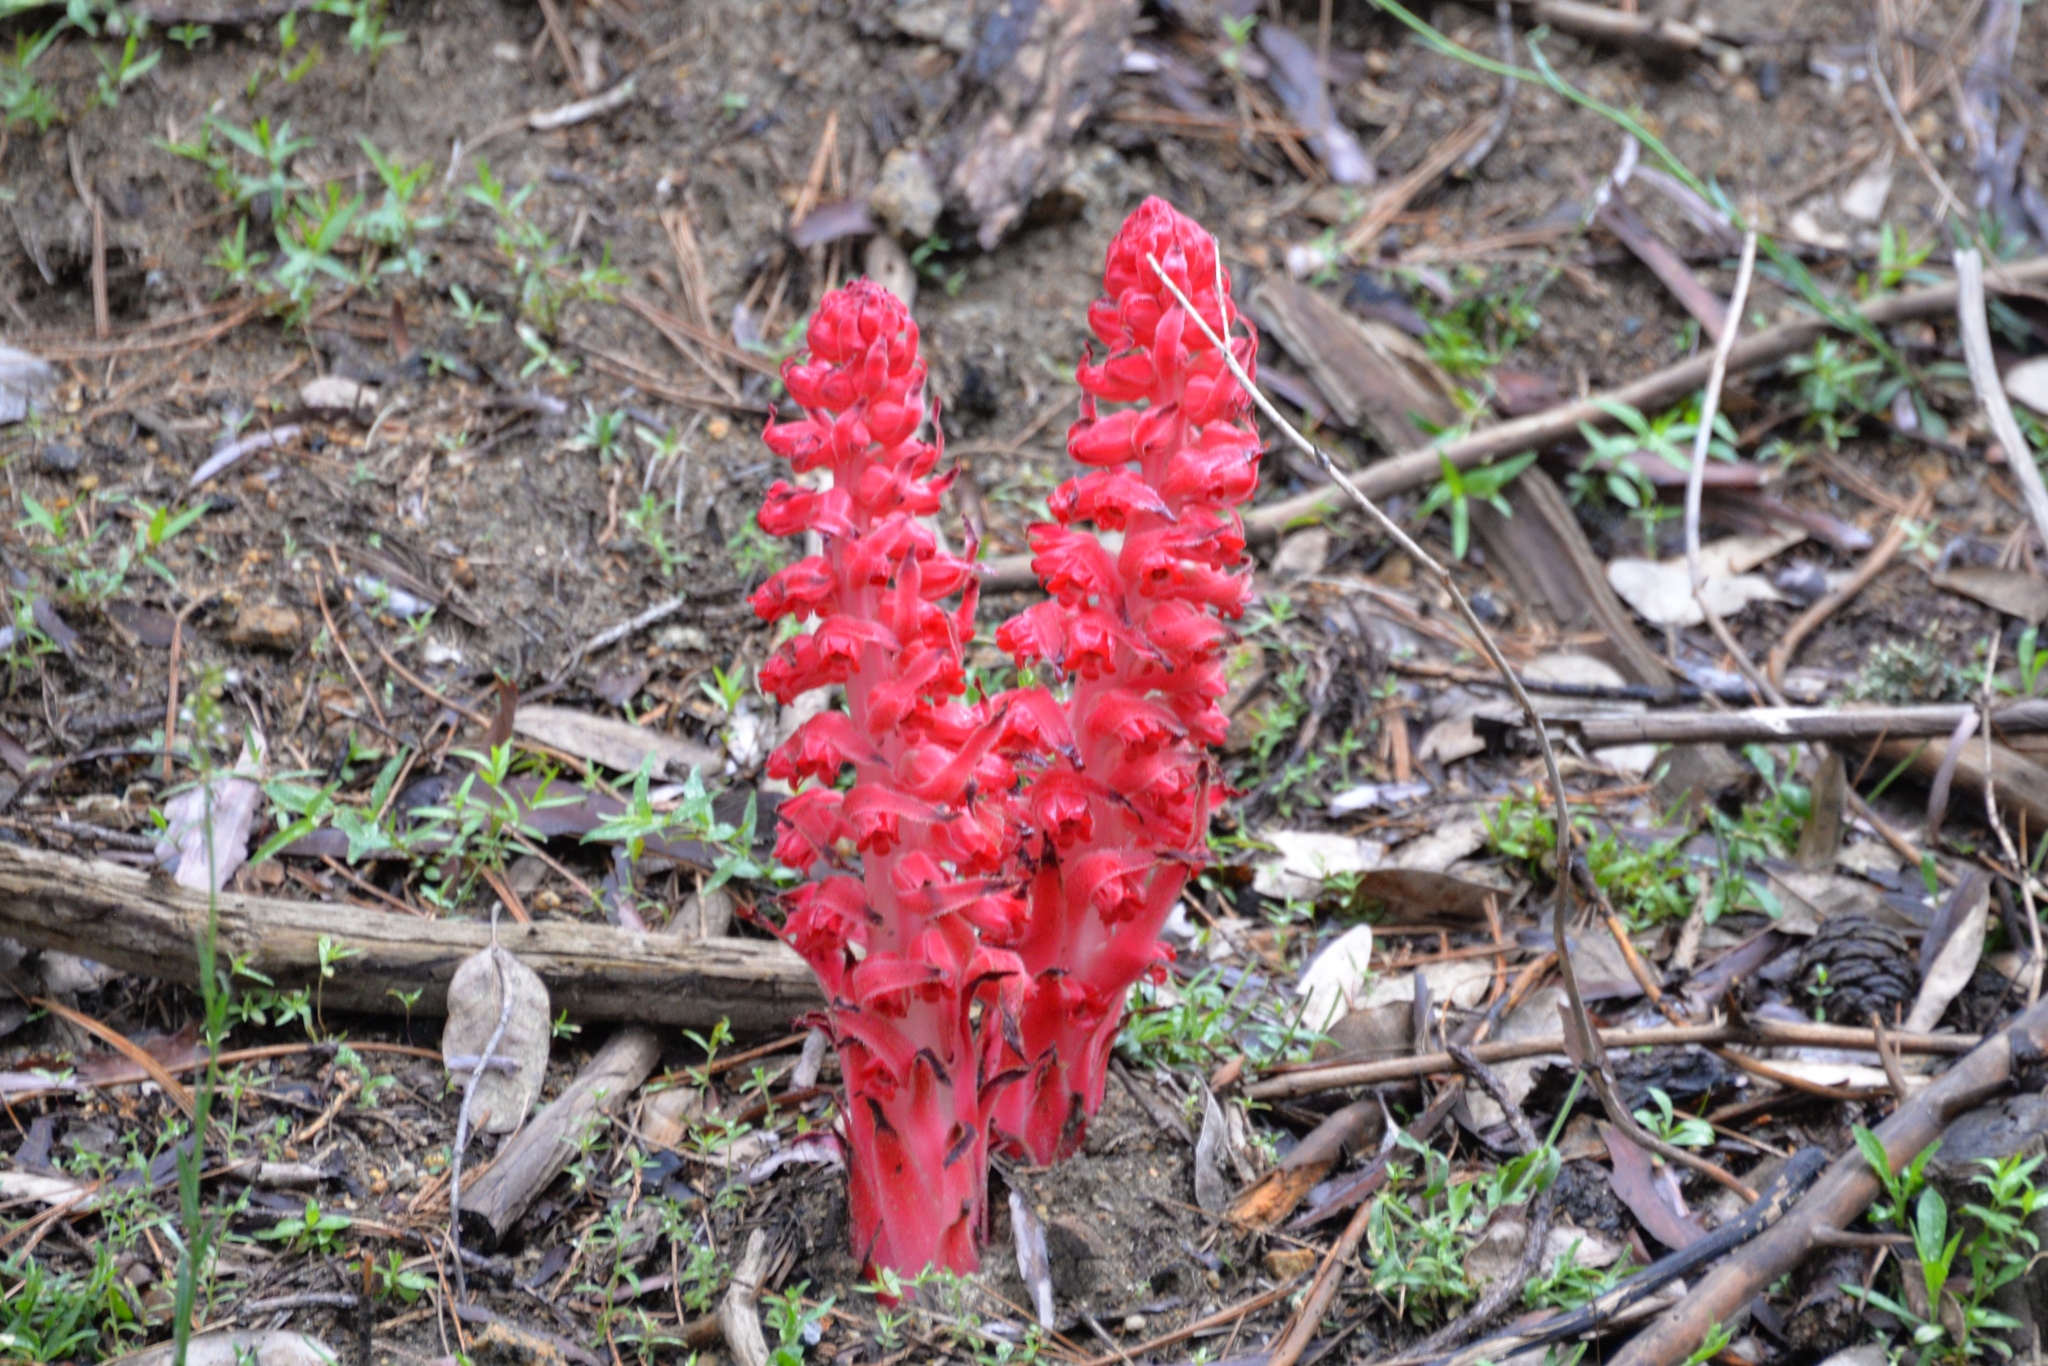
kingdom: Plantae
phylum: Tracheophyta
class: Magnoliopsida
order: Ericales
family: Ericaceae
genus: Sarcodes
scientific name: Sarcodes sanguinea
